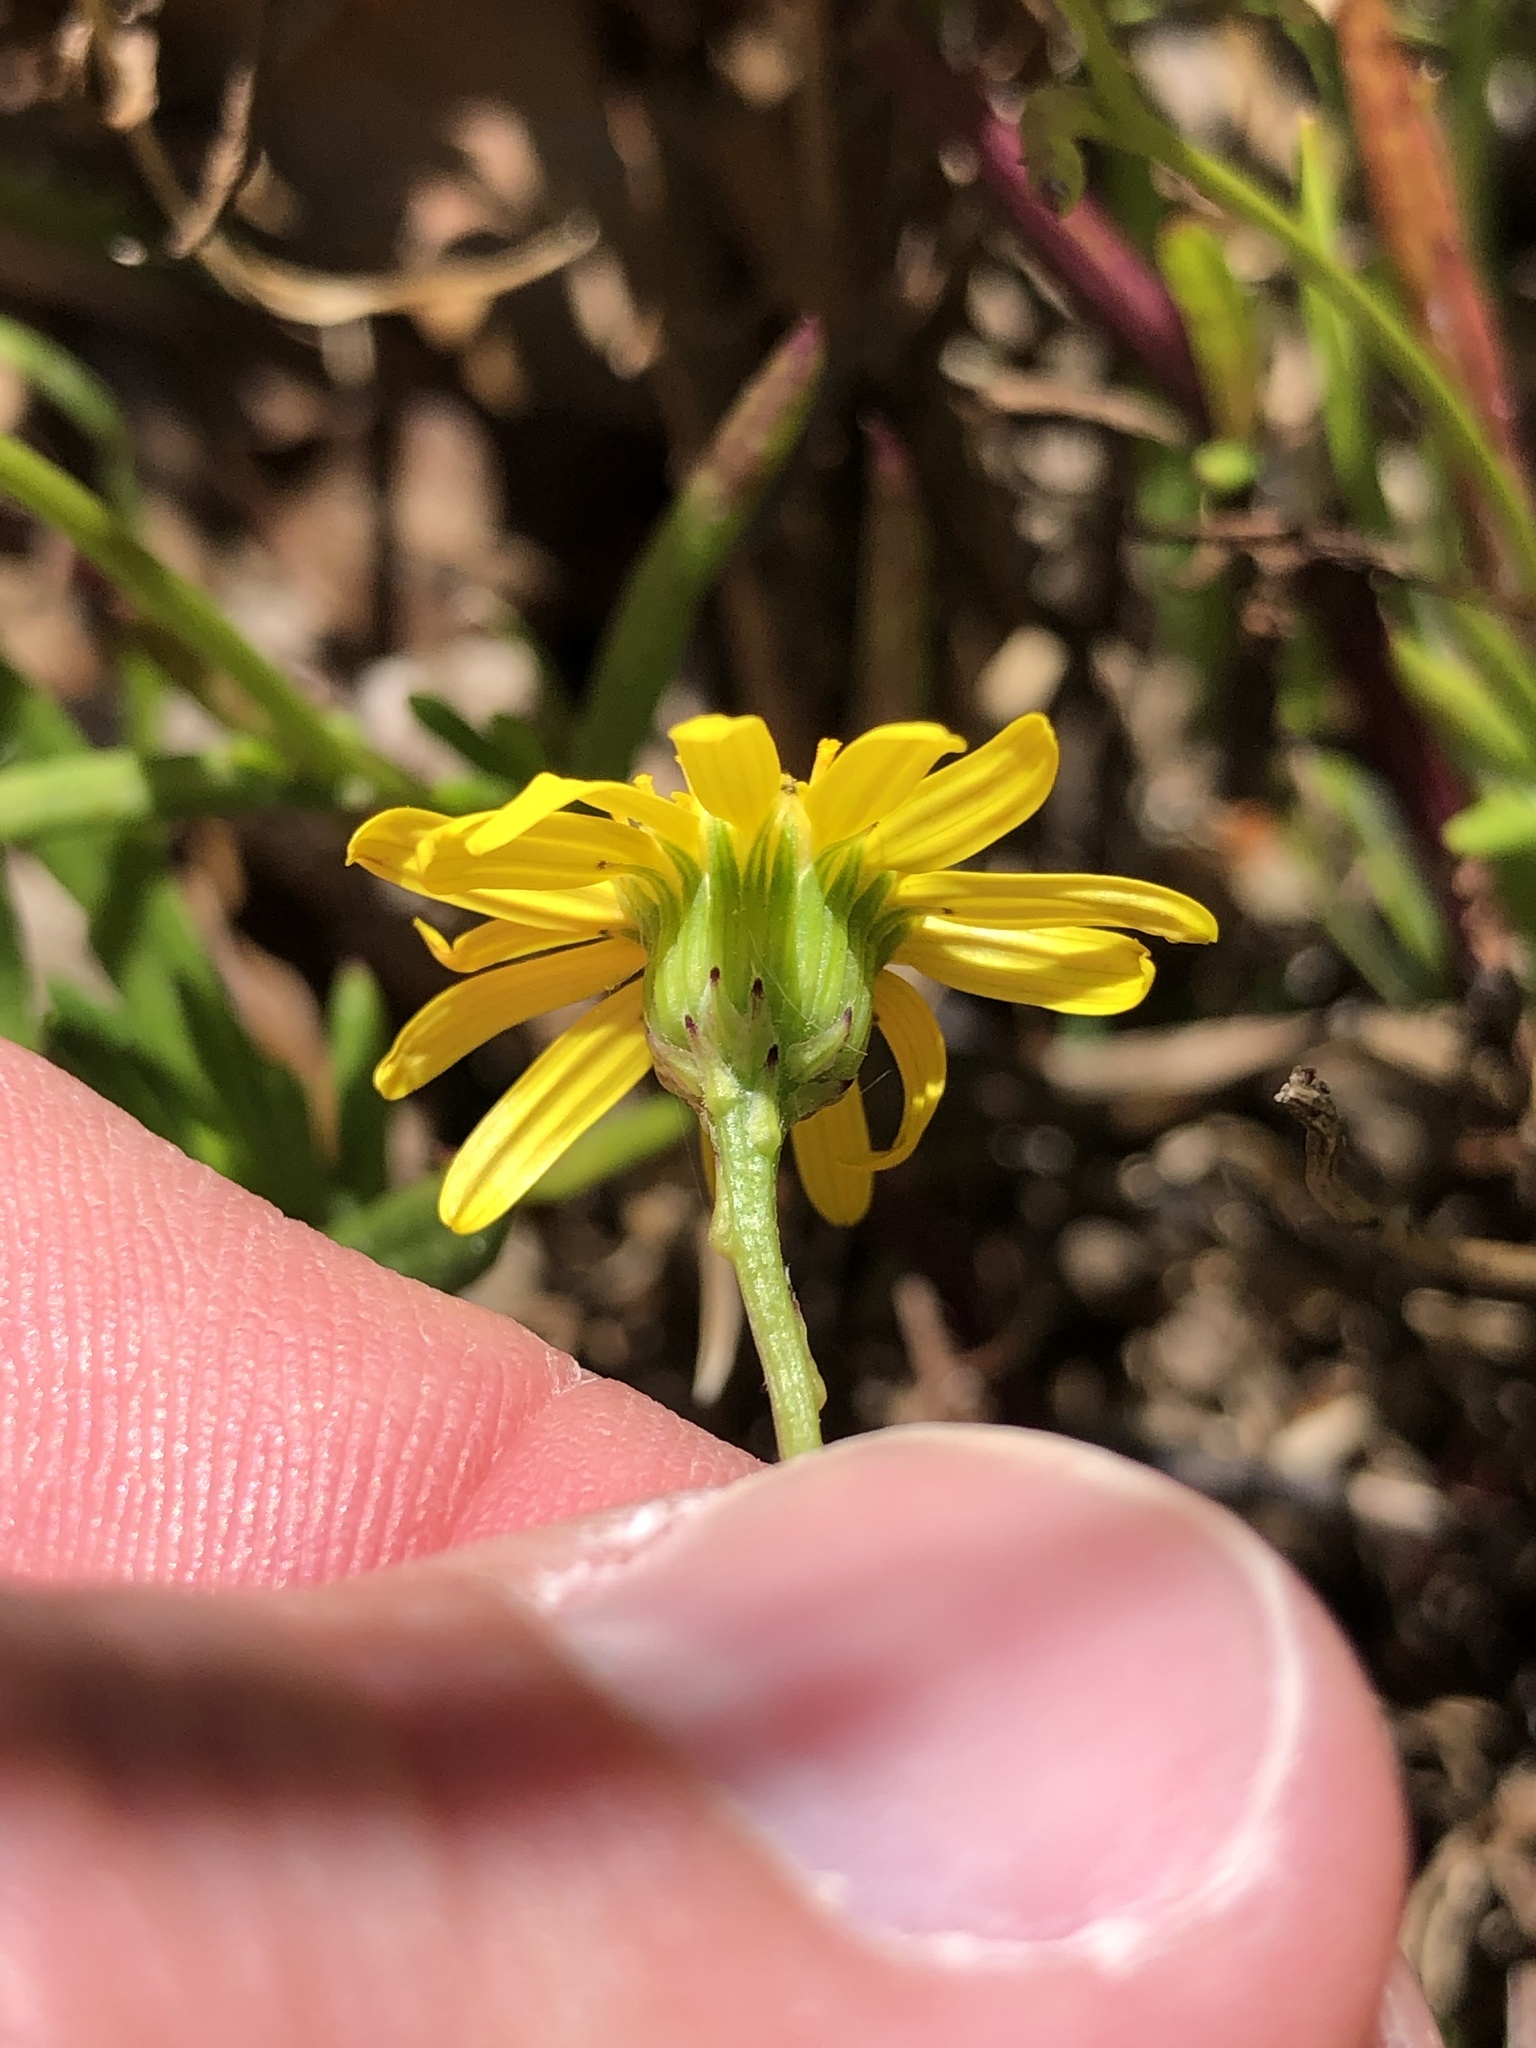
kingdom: Plantae
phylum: Tracheophyta
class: Magnoliopsida
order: Asterales
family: Asteraceae
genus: Senecio
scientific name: Senecio skirrhodon
